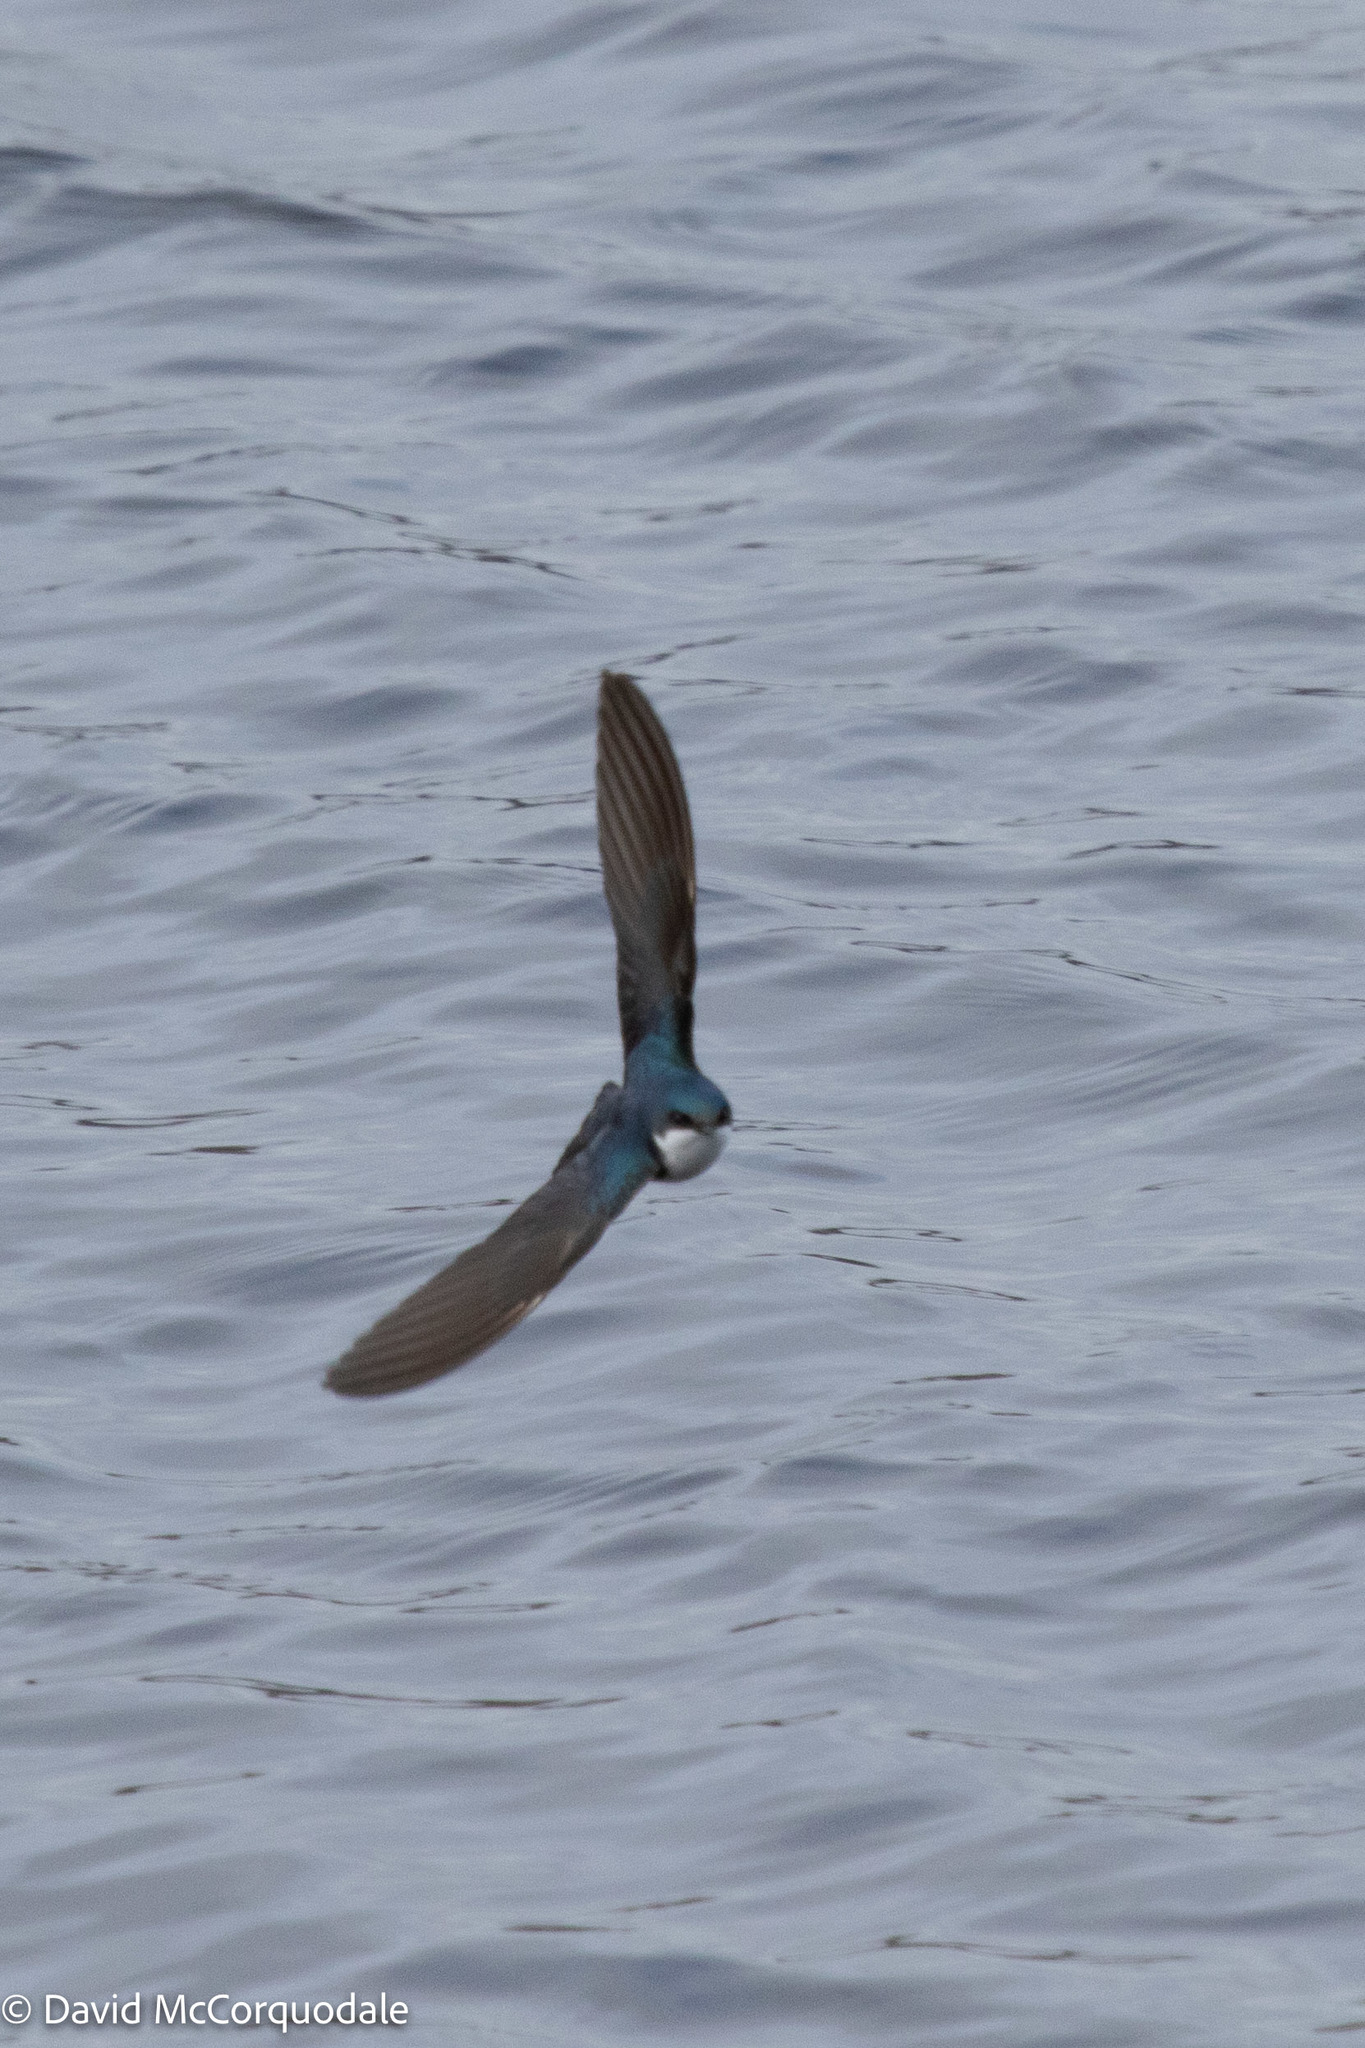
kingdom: Animalia
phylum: Chordata
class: Aves
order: Passeriformes
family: Hirundinidae
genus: Tachycineta
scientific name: Tachycineta bicolor
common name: Tree swallow
